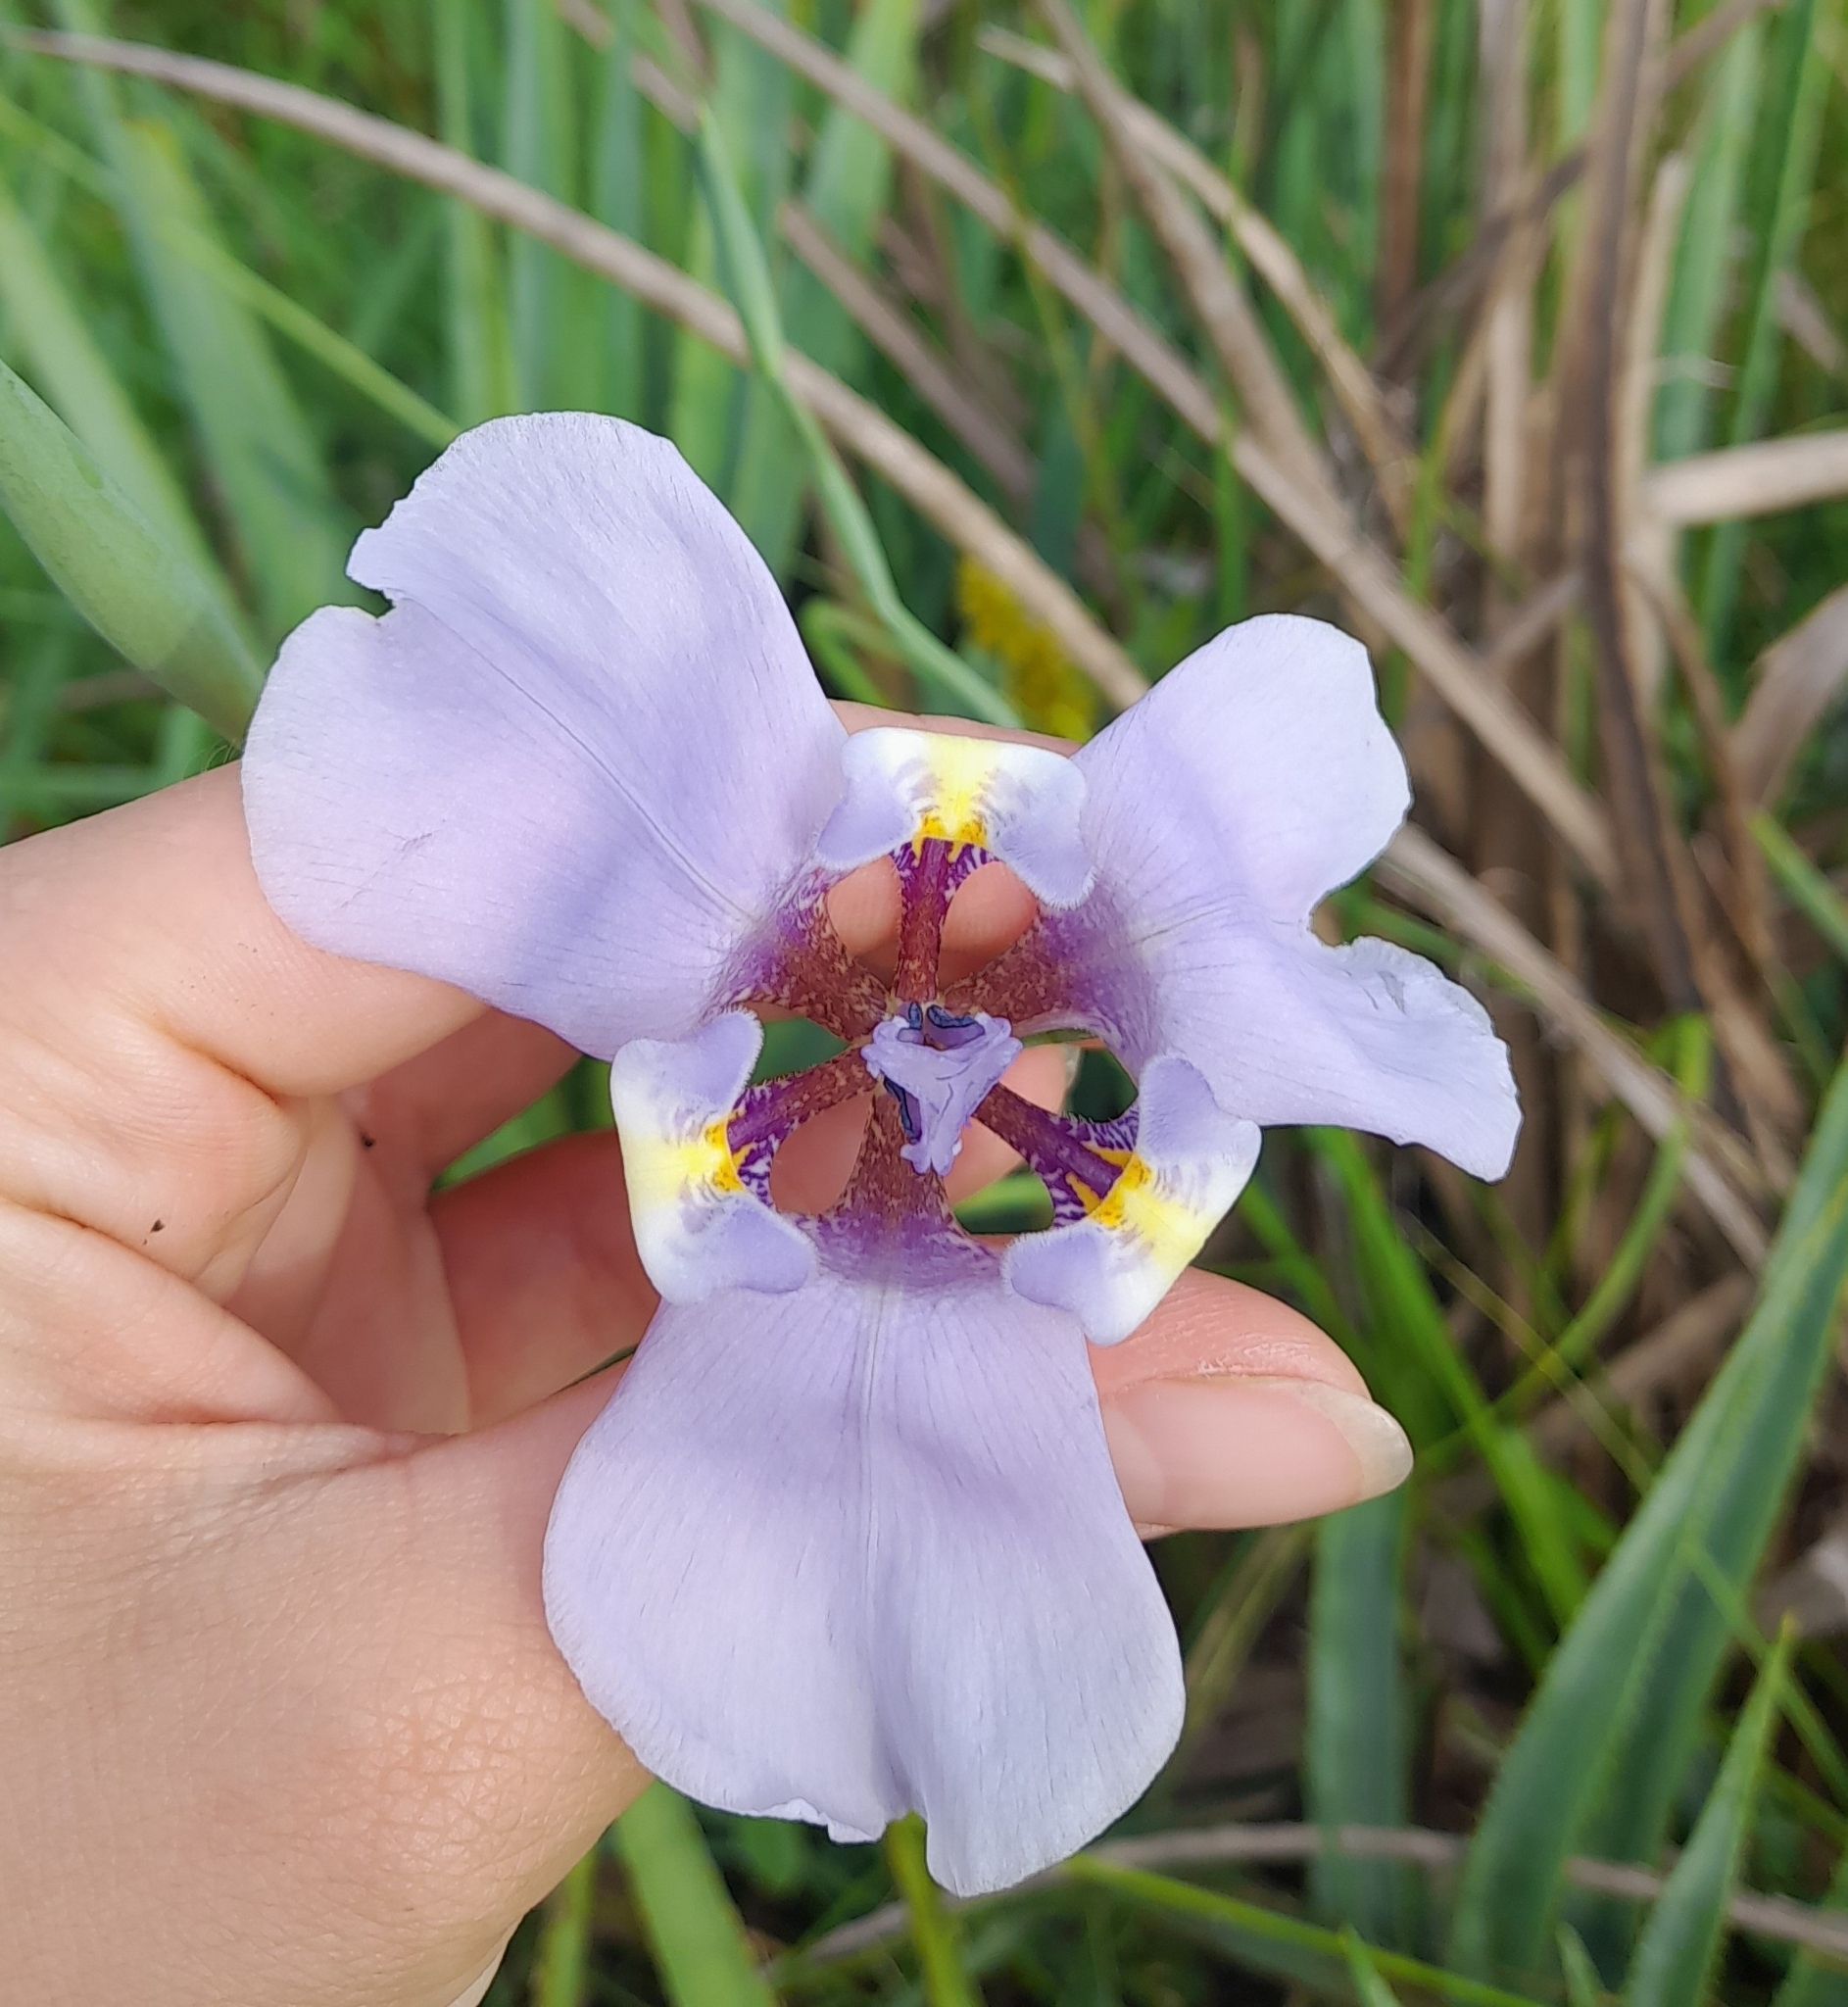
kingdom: Plantae
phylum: Tracheophyta
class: Liliopsida
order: Asparagales
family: Iridaceae
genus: Phalocallis
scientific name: Phalocallis coelestis
